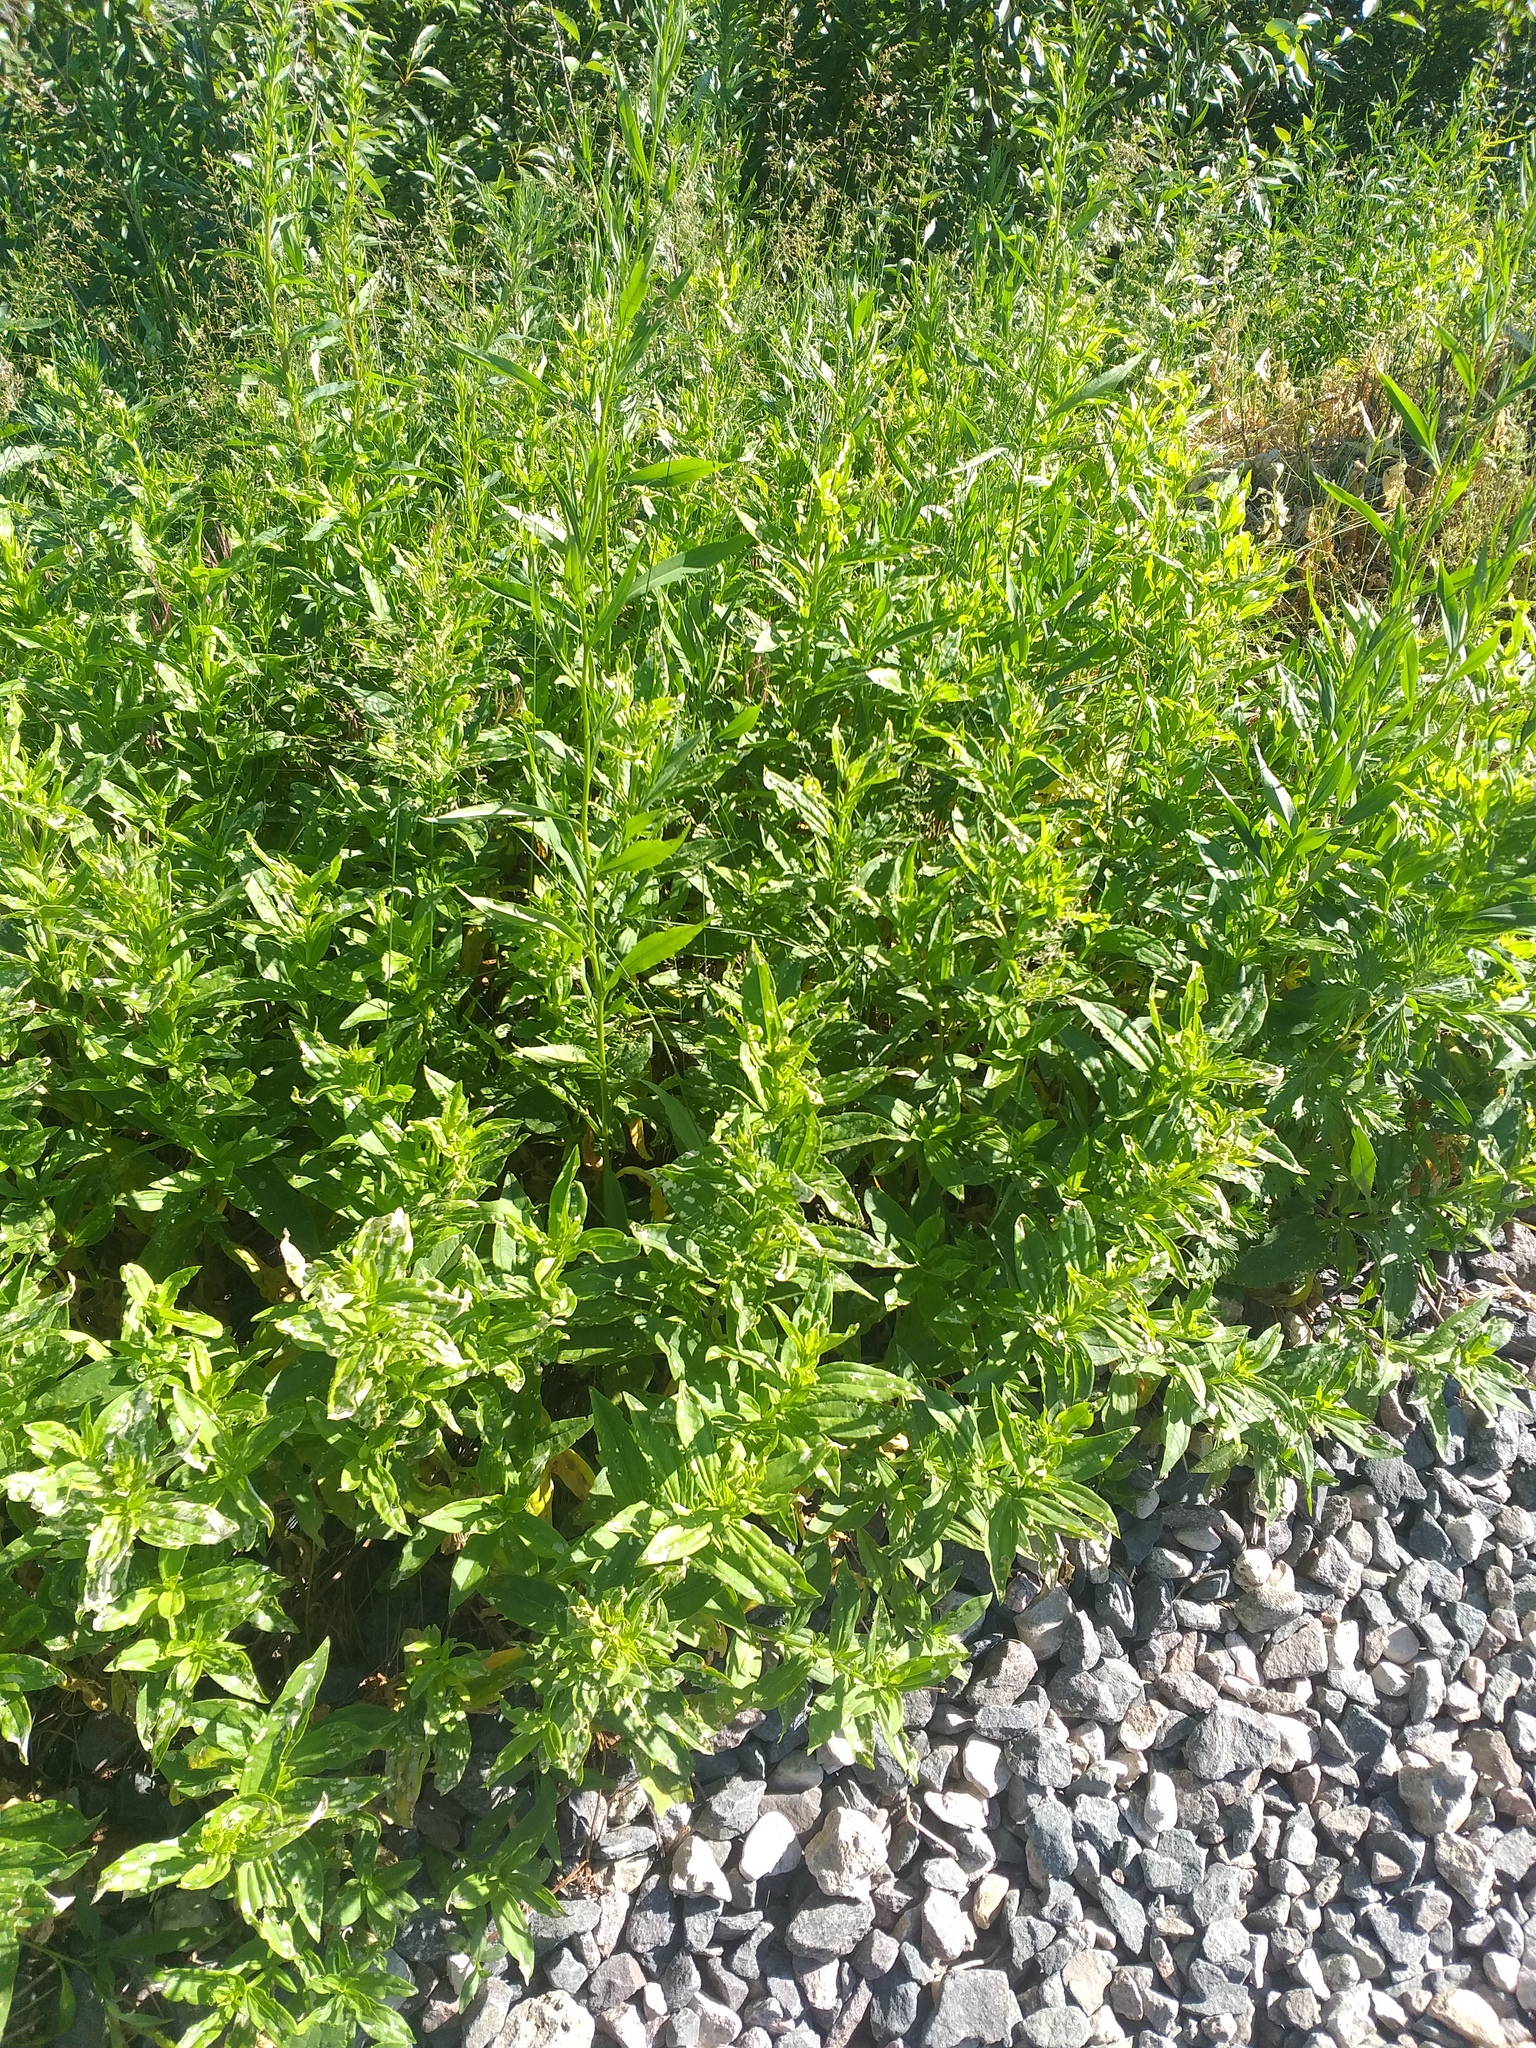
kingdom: Plantae
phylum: Tracheophyta
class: Magnoliopsida
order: Caryophyllales
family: Caryophyllaceae
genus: Saponaria
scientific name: Saponaria officinalis
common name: Soapwort
